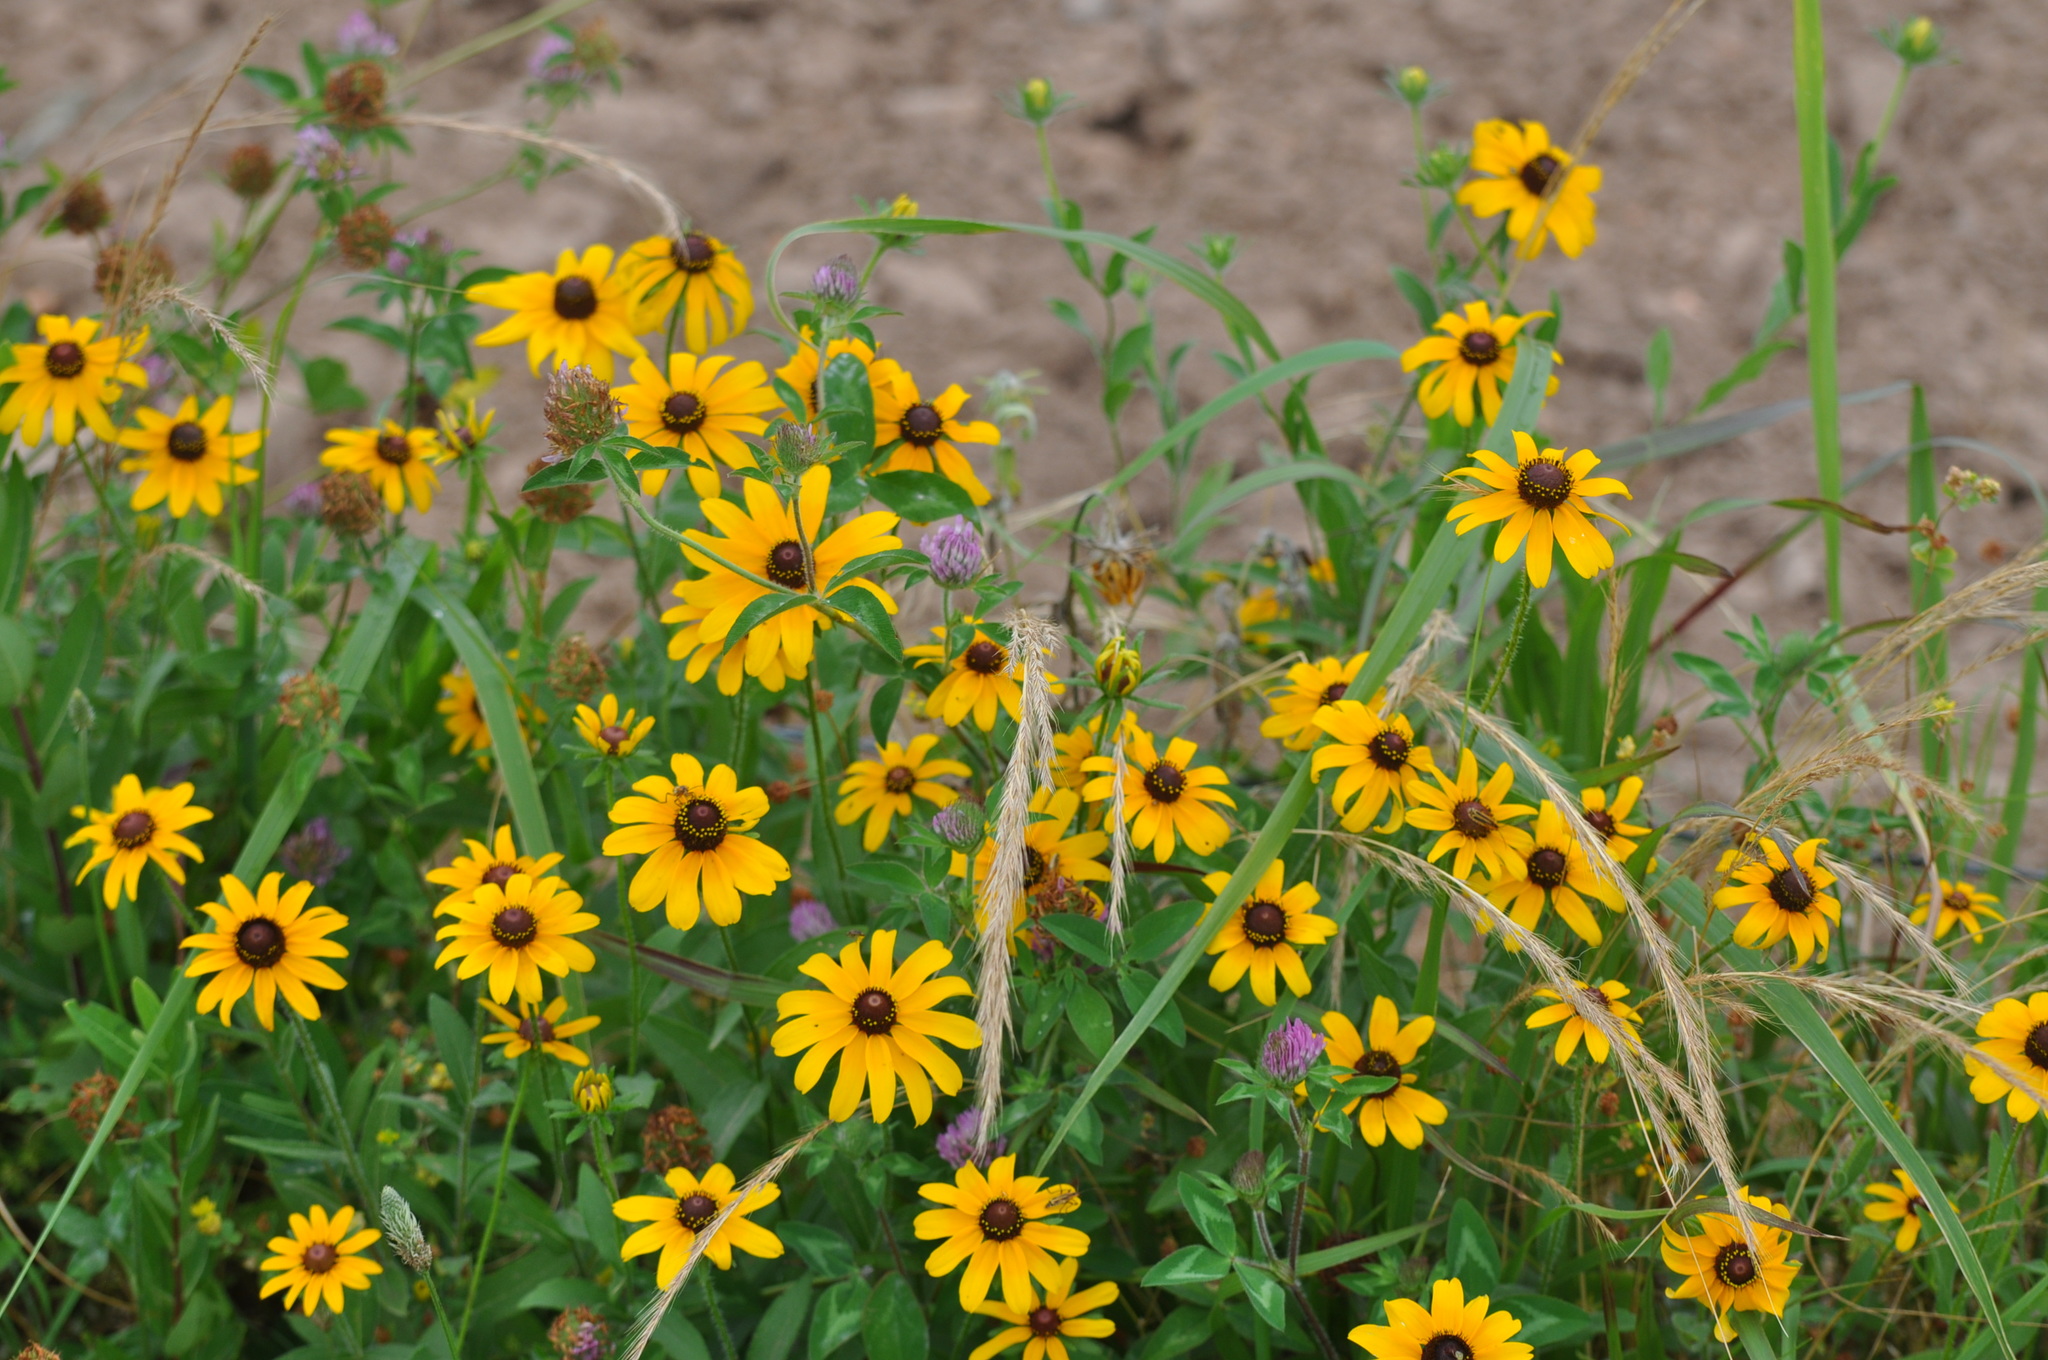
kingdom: Plantae
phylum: Tracheophyta
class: Magnoliopsida
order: Asterales
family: Asteraceae
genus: Rudbeckia
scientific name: Rudbeckia hirta
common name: Black-eyed-susan
